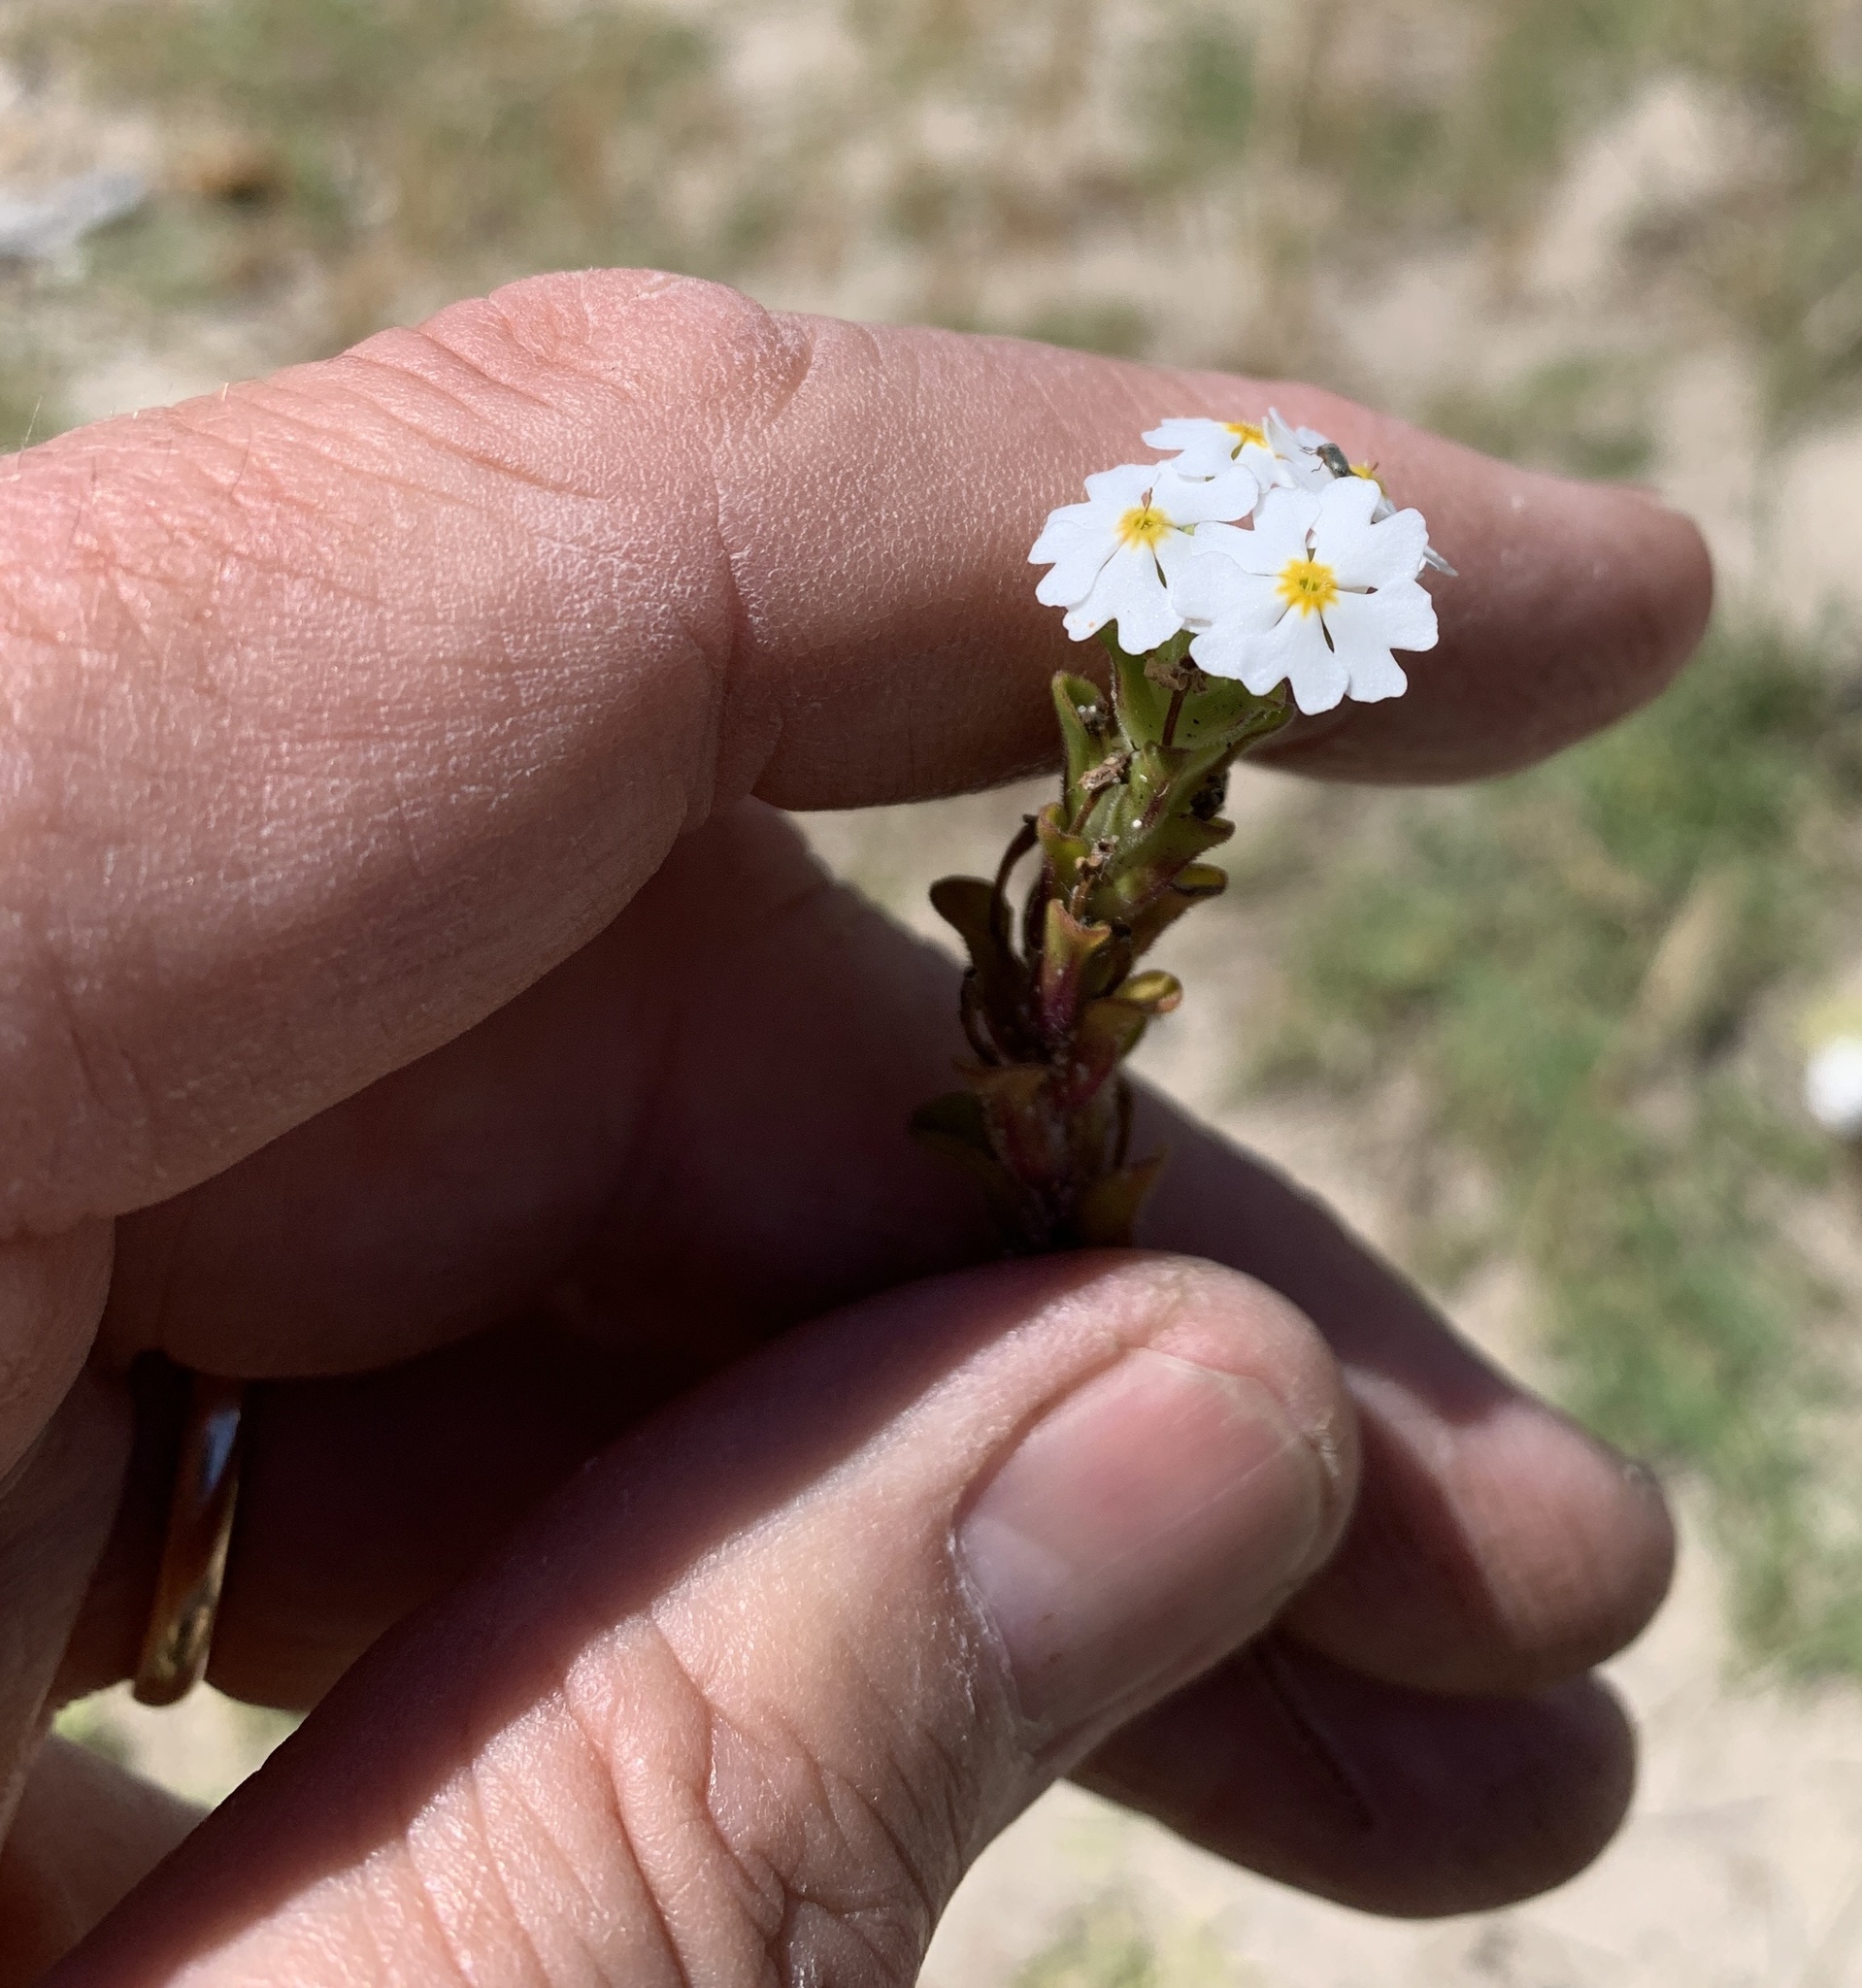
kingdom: Plantae
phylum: Tracheophyta
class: Magnoliopsida
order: Lamiales
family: Scrophulariaceae
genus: Zaluzianskya
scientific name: Zaluzianskya villosa
